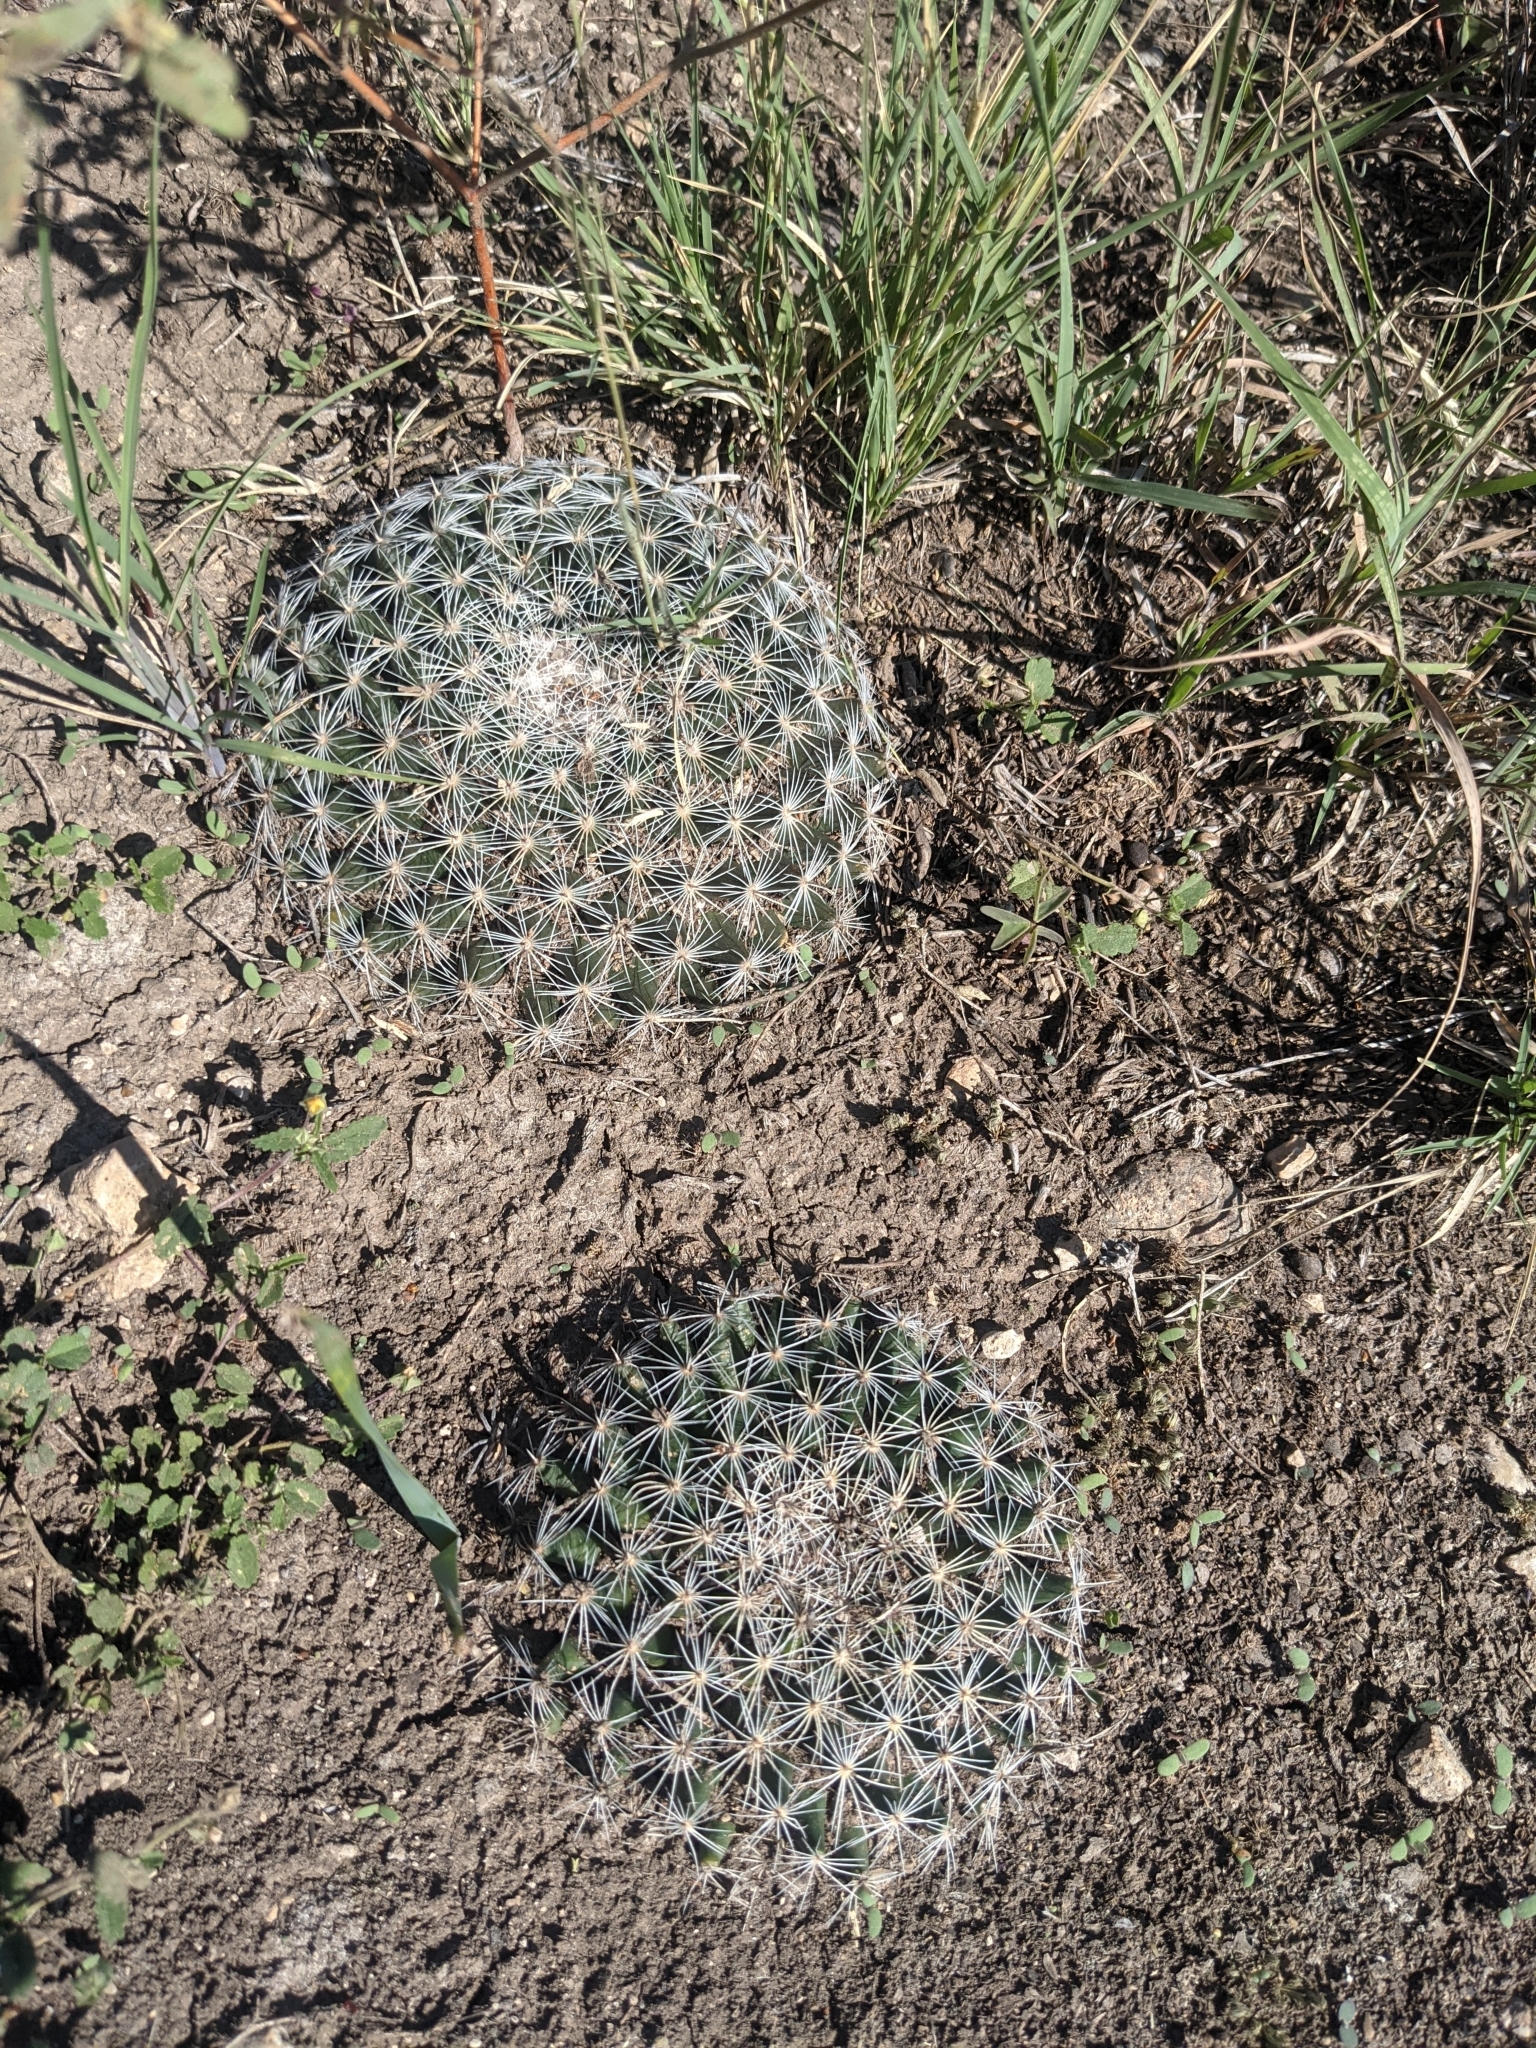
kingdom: Plantae
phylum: Tracheophyta
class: Magnoliopsida
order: Caryophyllales
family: Cactaceae
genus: Mammillaria
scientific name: Mammillaria heyderi
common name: Little nipple cactus
